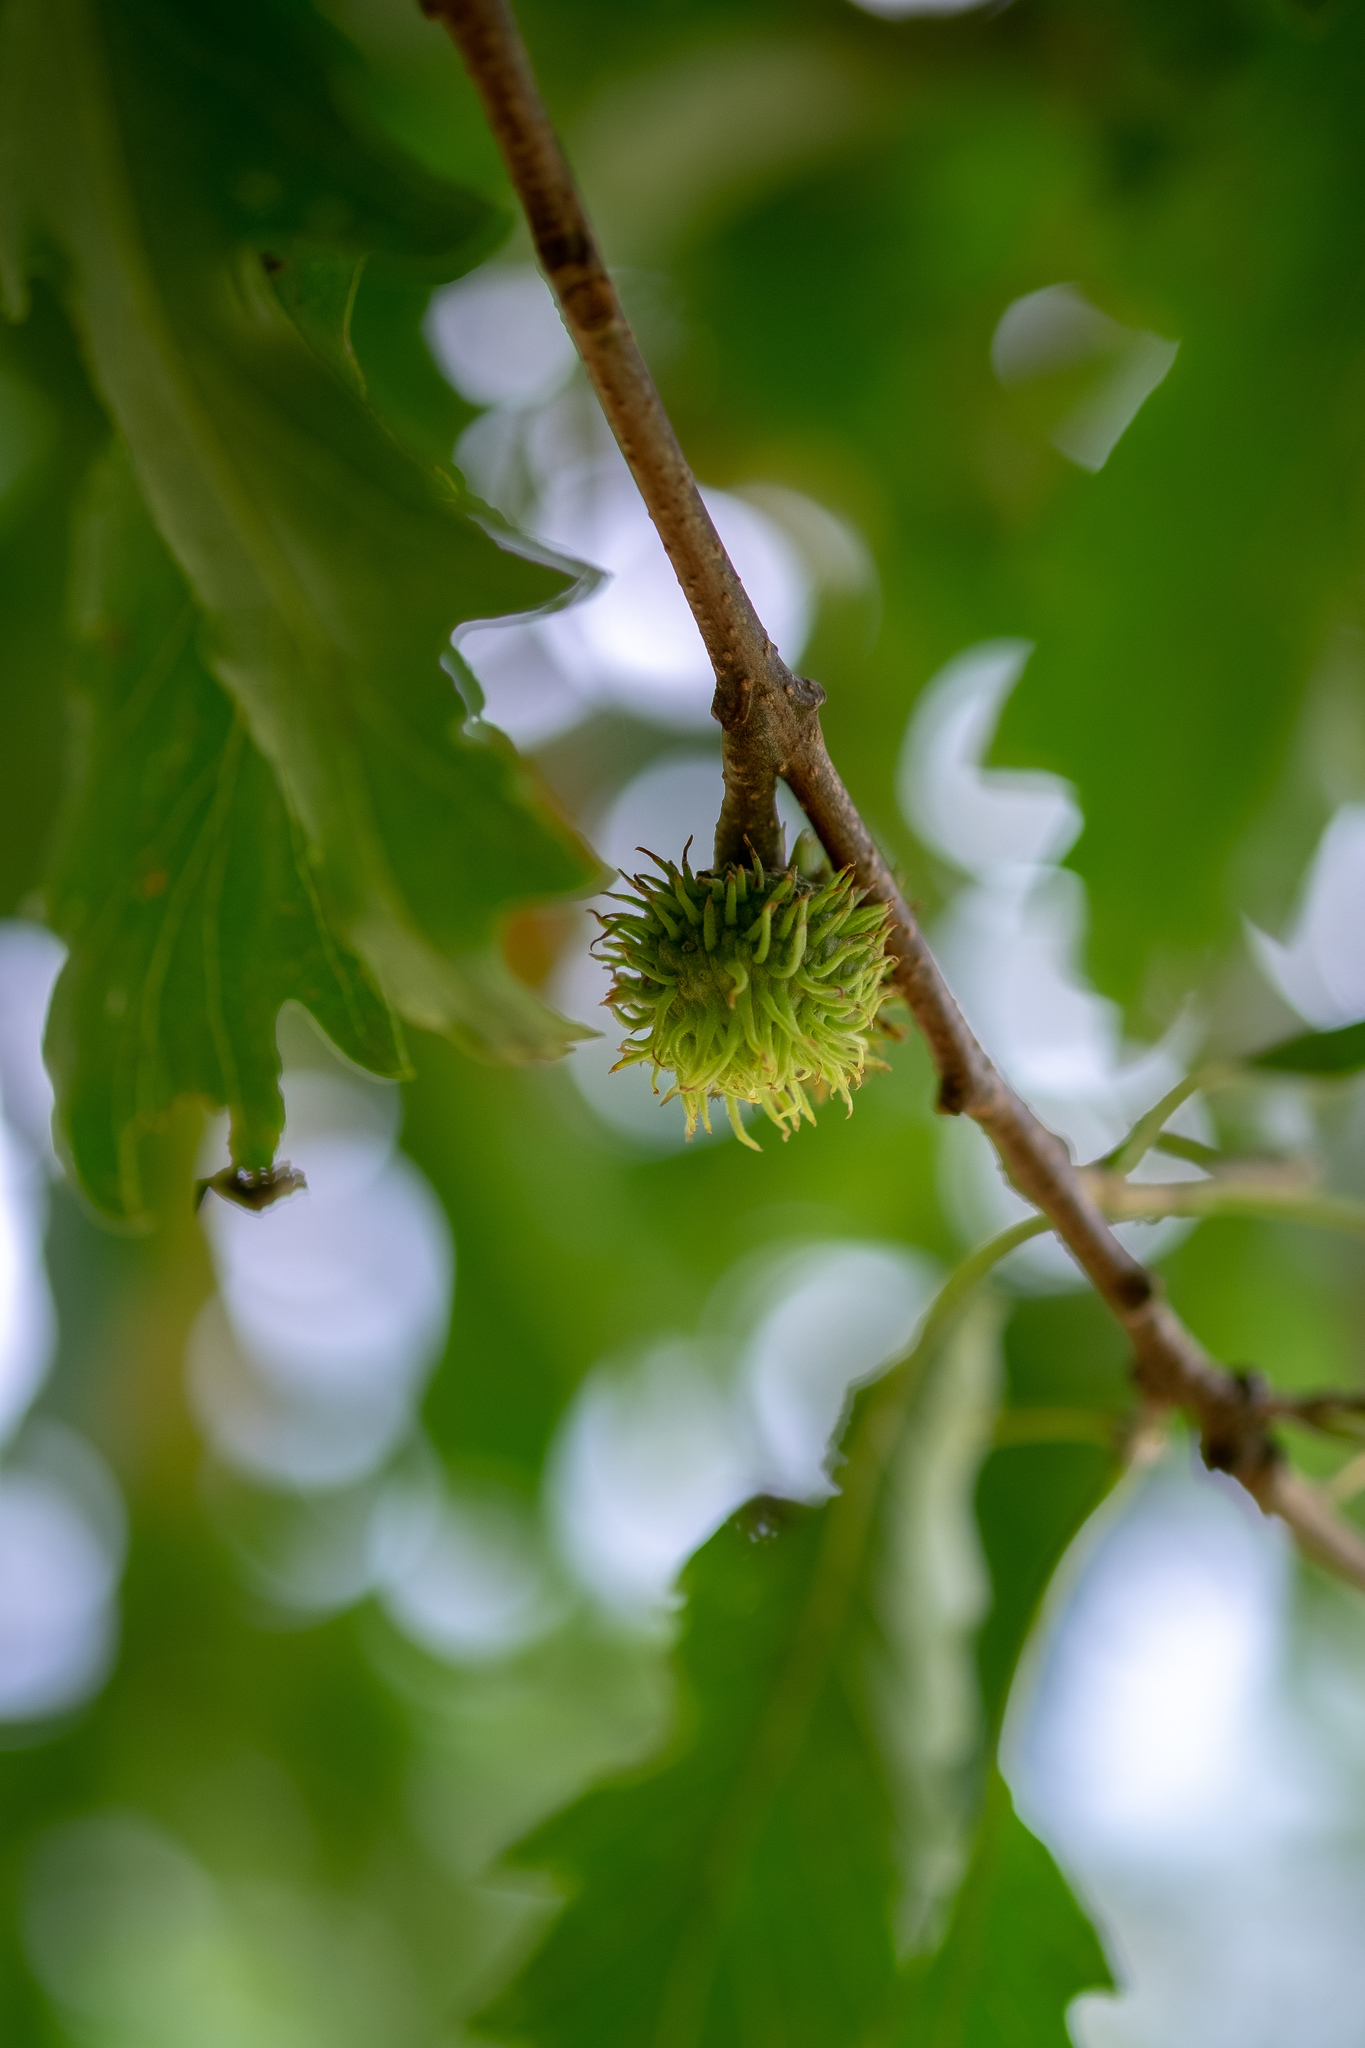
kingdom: Plantae
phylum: Tracheophyta
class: Magnoliopsida
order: Fagales
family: Fagaceae
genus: Quercus
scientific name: Quercus cerris
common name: Turkey oak
